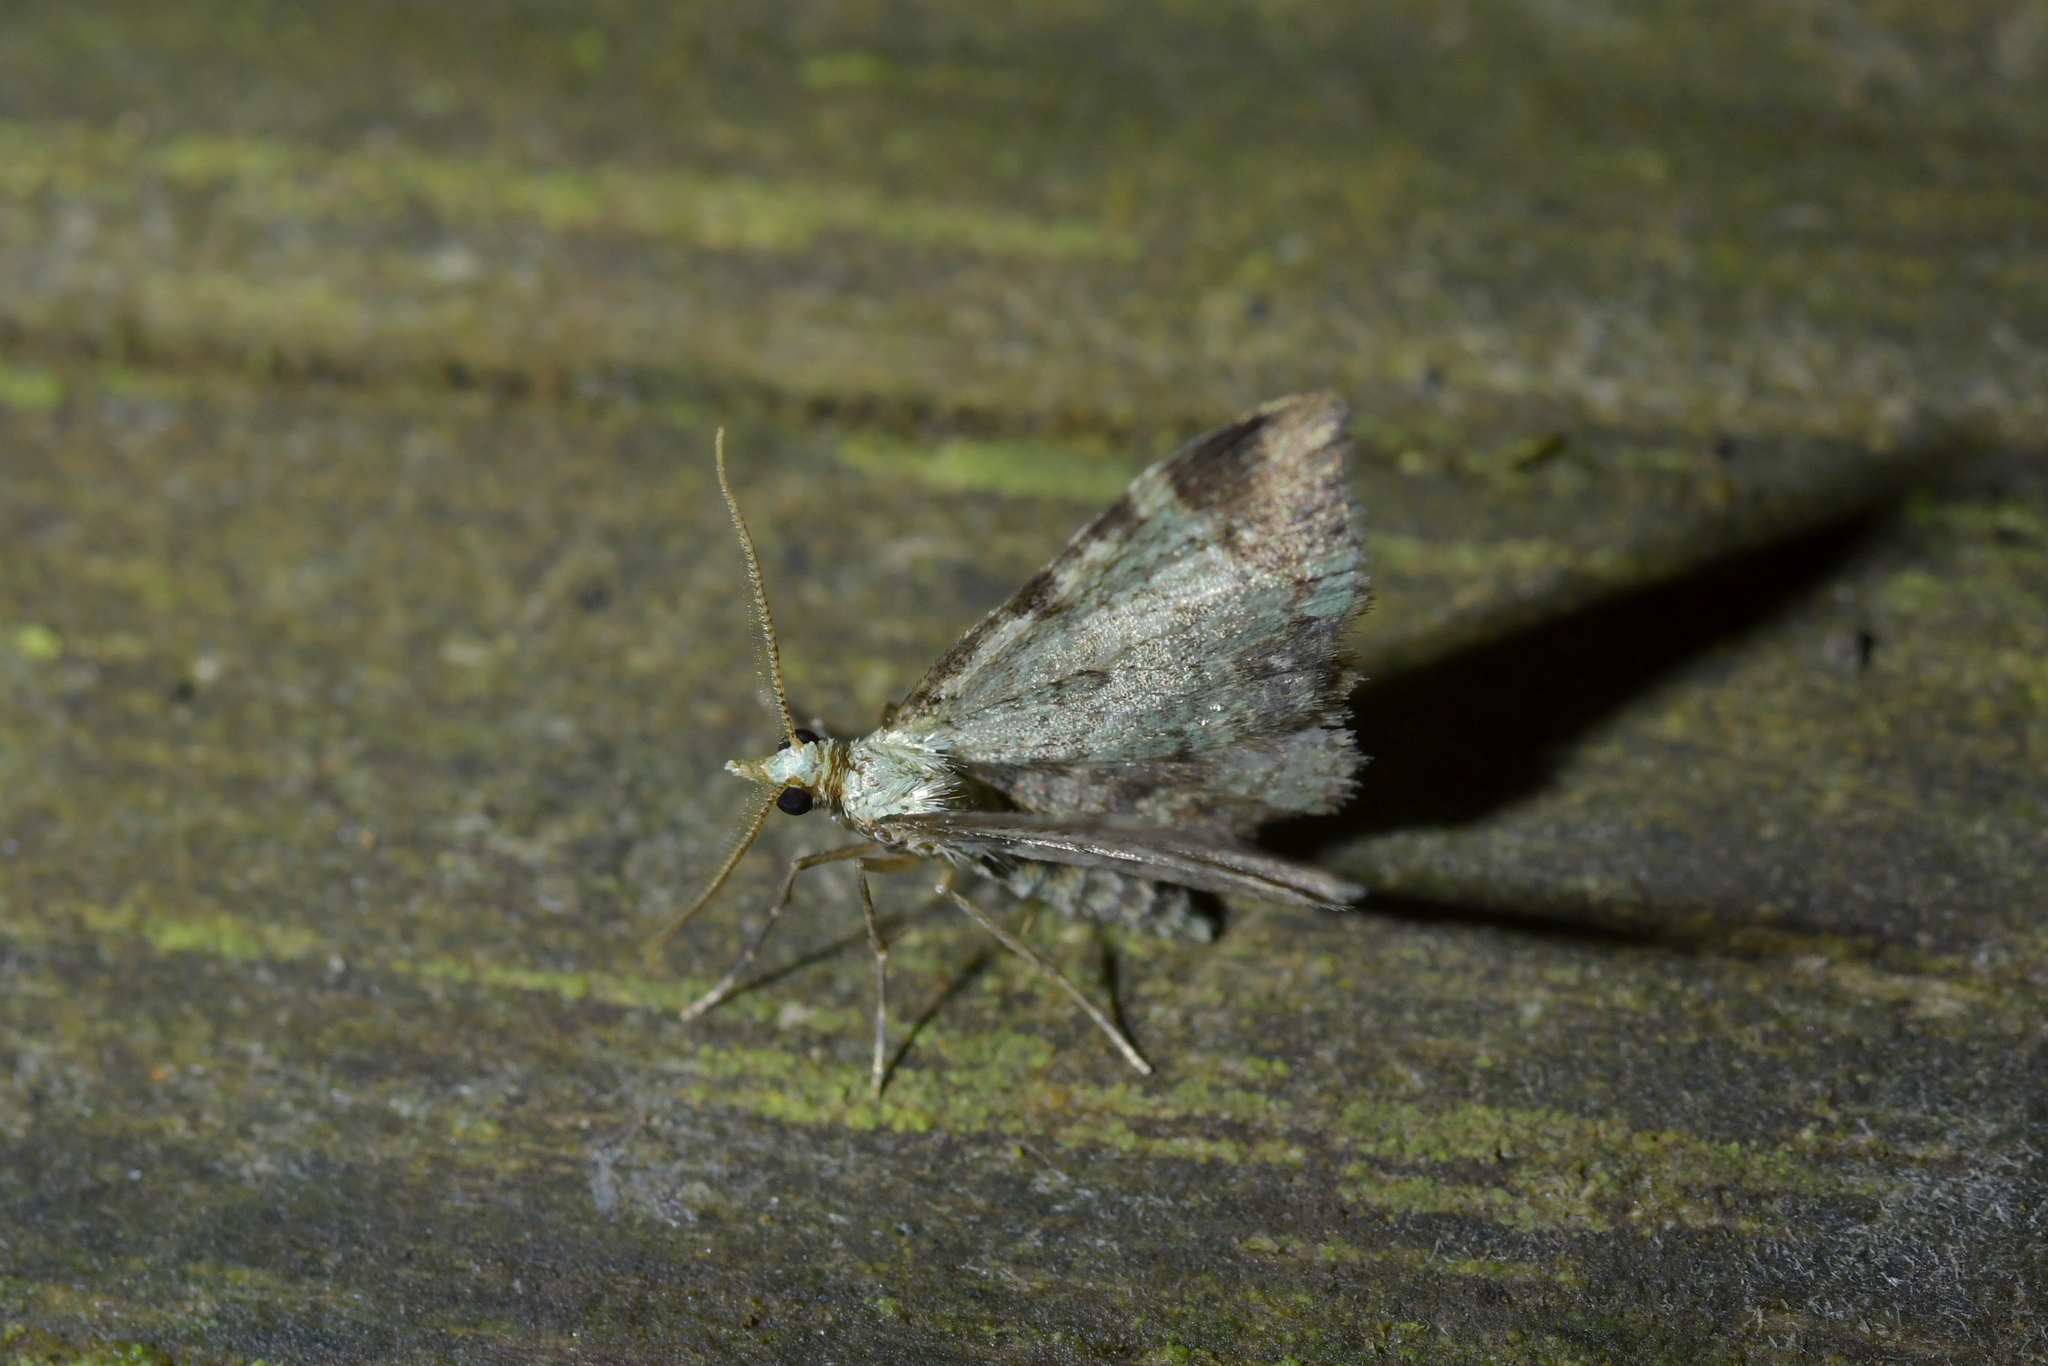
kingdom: Animalia
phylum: Arthropoda
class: Insecta
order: Lepidoptera
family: Geometridae
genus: Pasiphila
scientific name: Pasiphila magnimaculata
